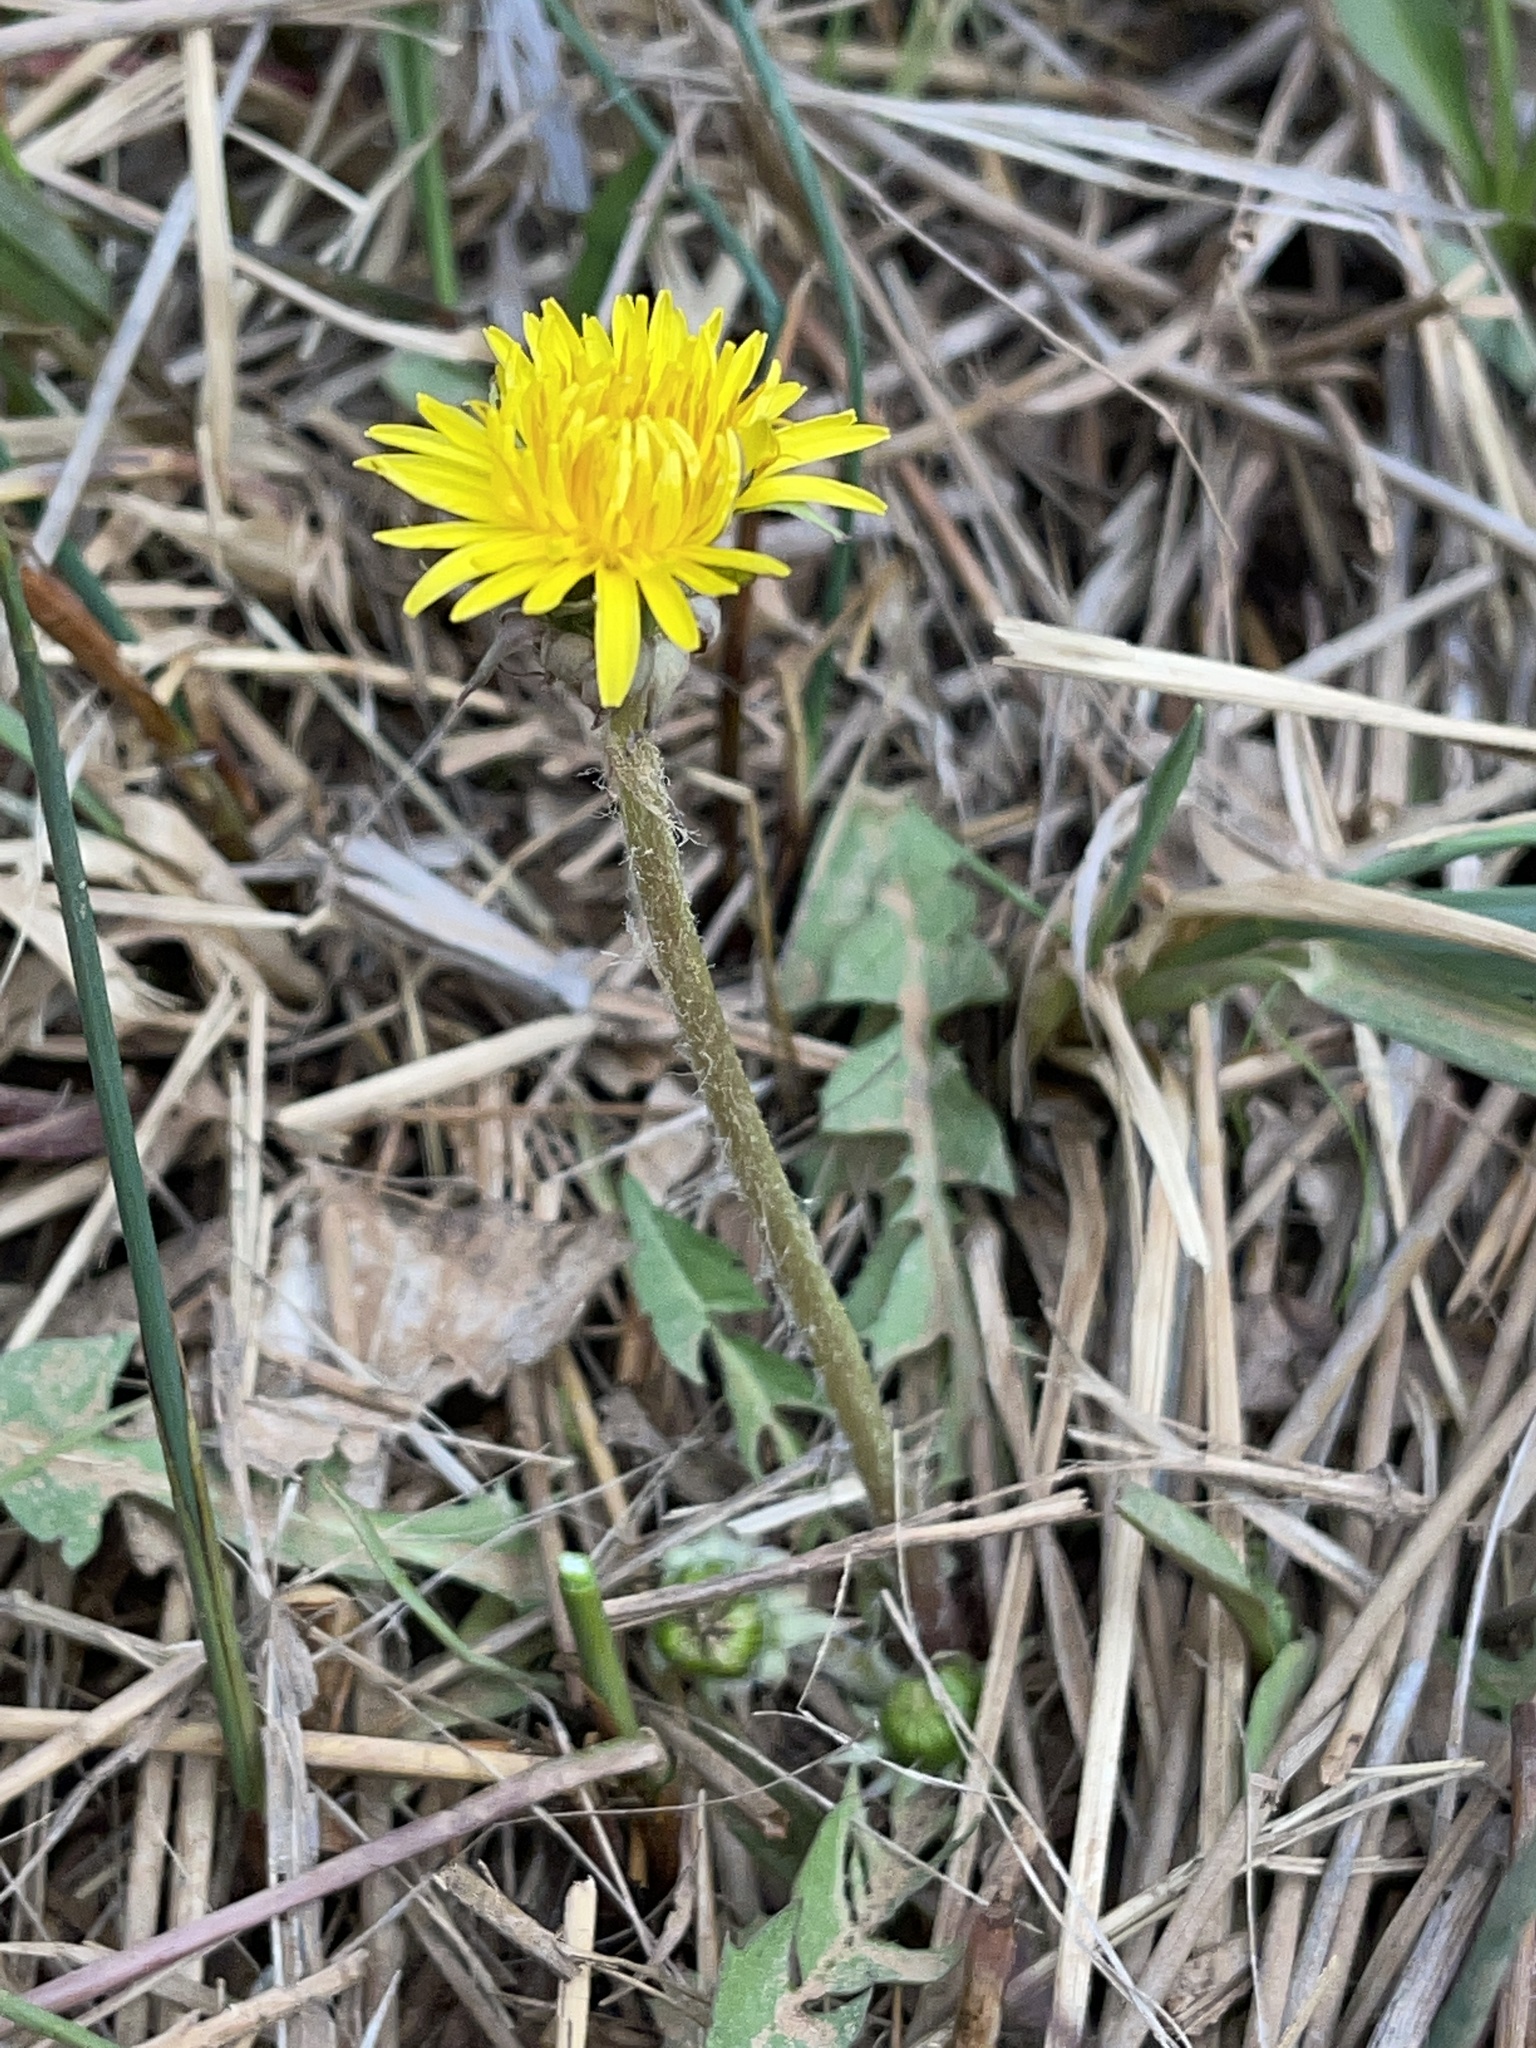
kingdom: Plantae
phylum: Tracheophyta
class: Magnoliopsida
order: Asterales
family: Asteraceae
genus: Taraxacum
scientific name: Taraxacum officinale
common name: Common dandelion
